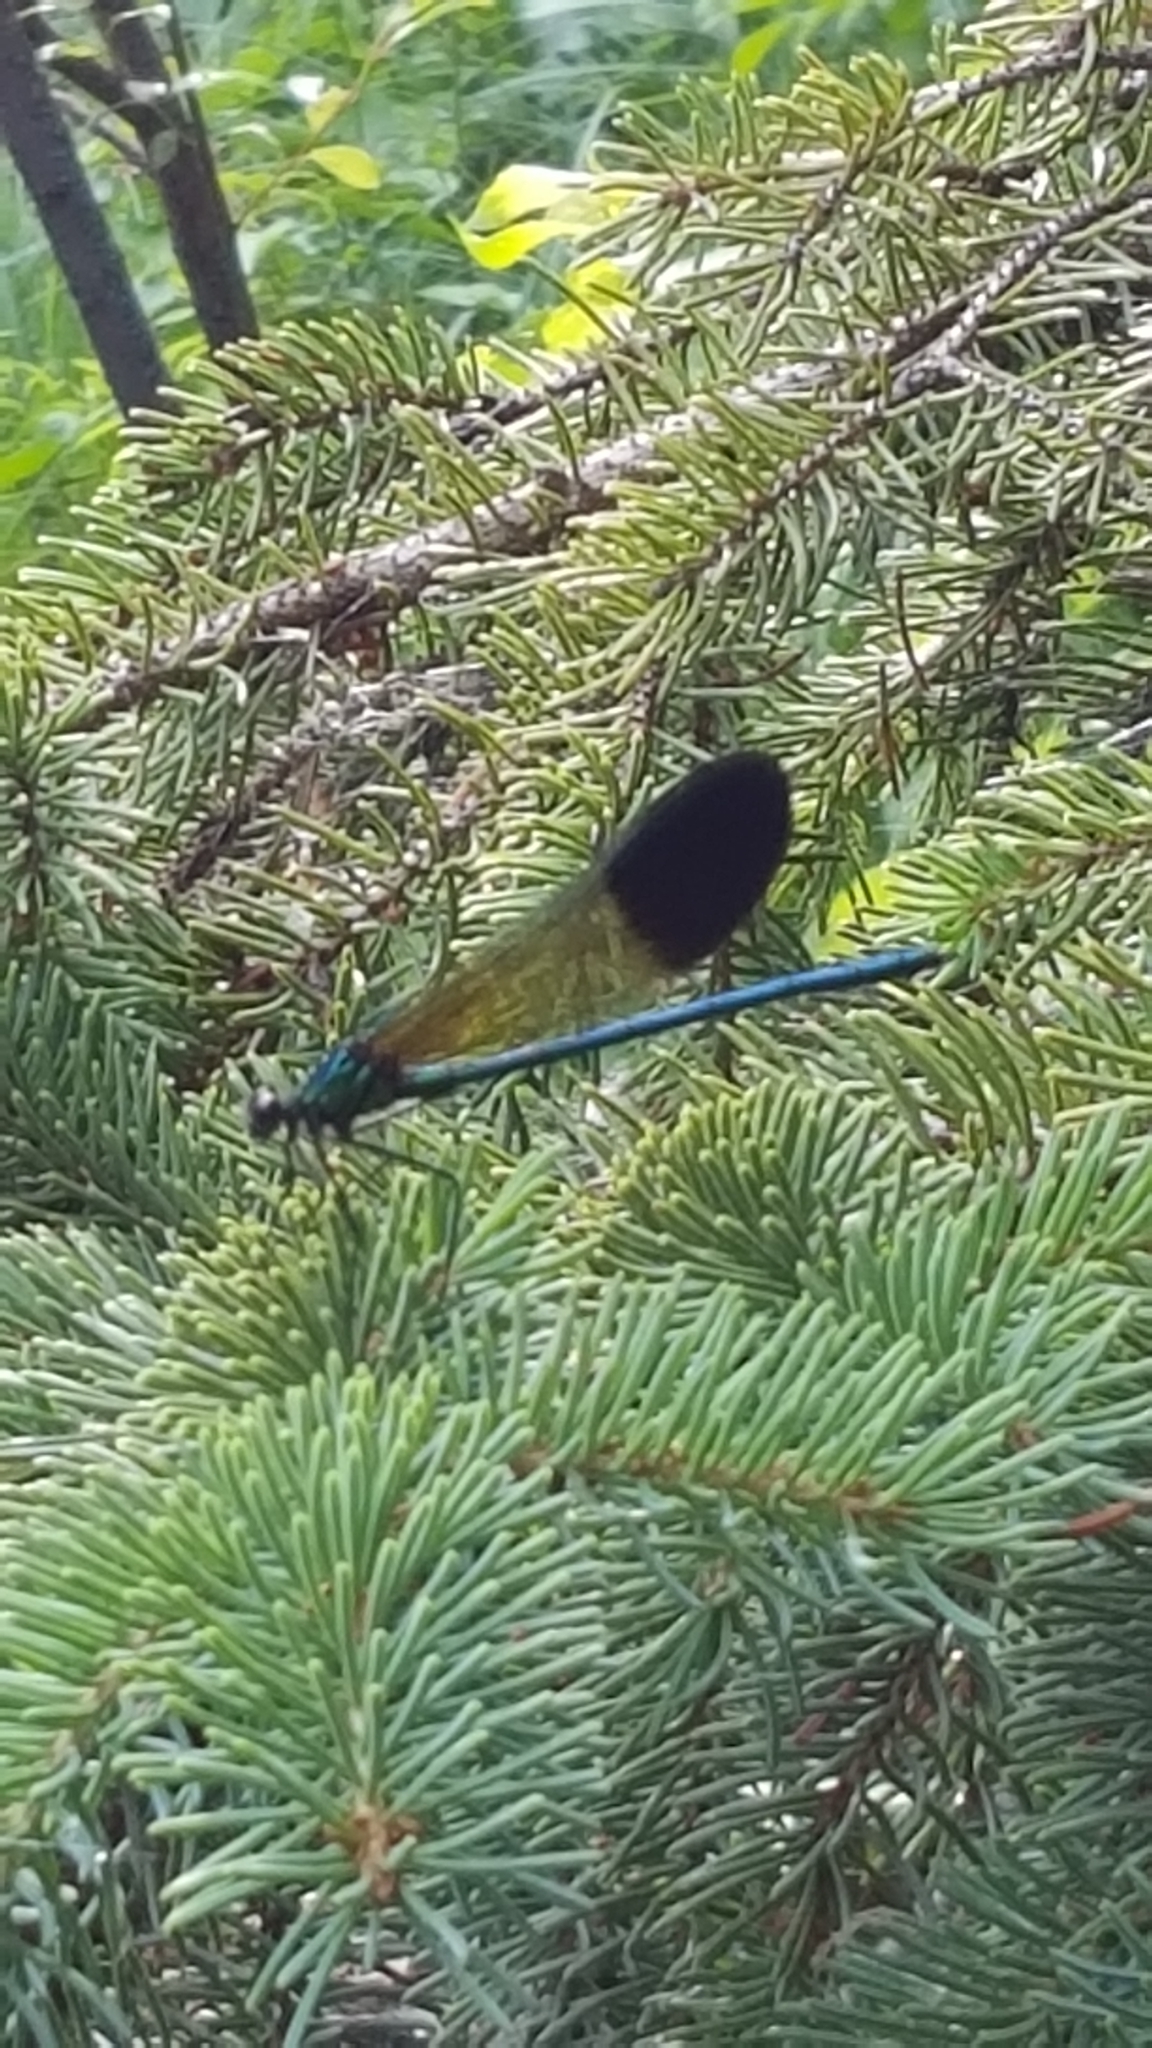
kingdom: Animalia
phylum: Arthropoda
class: Insecta
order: Odonata
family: Calopterygidae
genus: Calopteryx
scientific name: Calopteryx aequabilis
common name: River jewelwing
